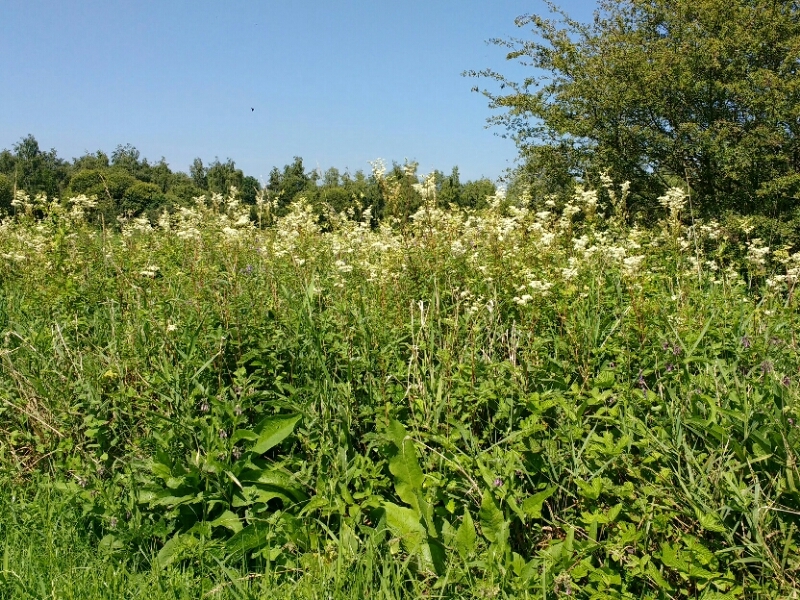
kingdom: Plantae
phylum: Tracheophyta
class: Magnoliopsida
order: Rosales
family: Rosaceae
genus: Filipendula
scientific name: Filipendula ulmaria
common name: Meadowsweet
